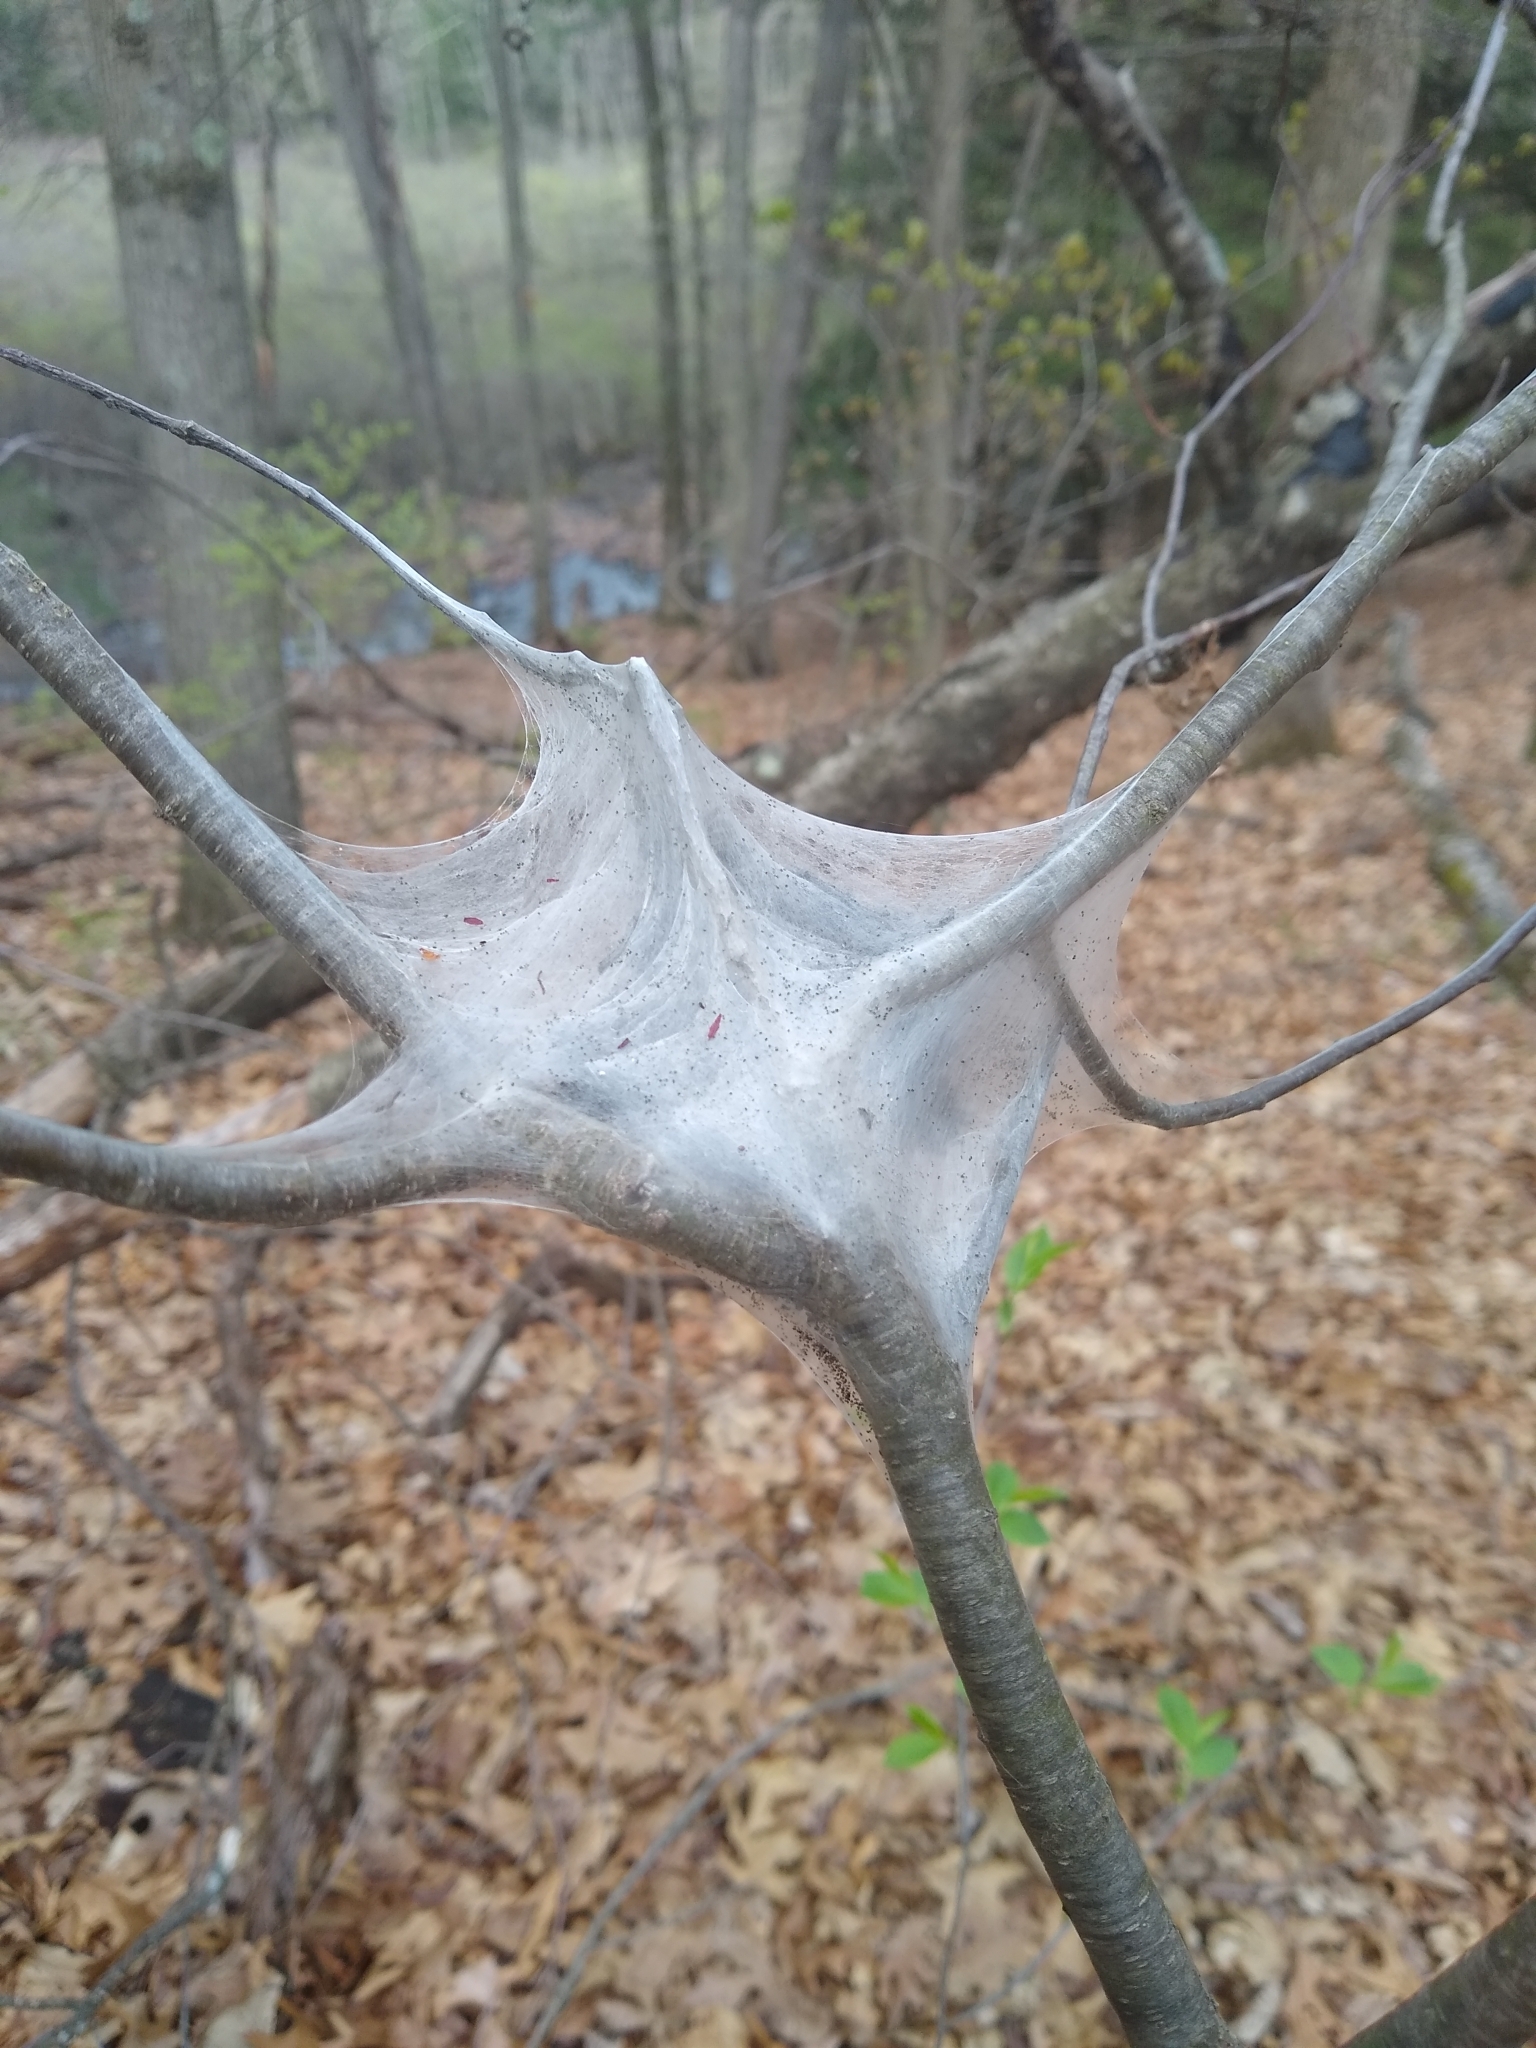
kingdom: Animalia
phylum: Arthropoda
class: Insecta
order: Lepidoptera
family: Lasiocampidae
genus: Malacosoma
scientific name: Malacosoma americana
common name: Eastern tent caterpillar moth
